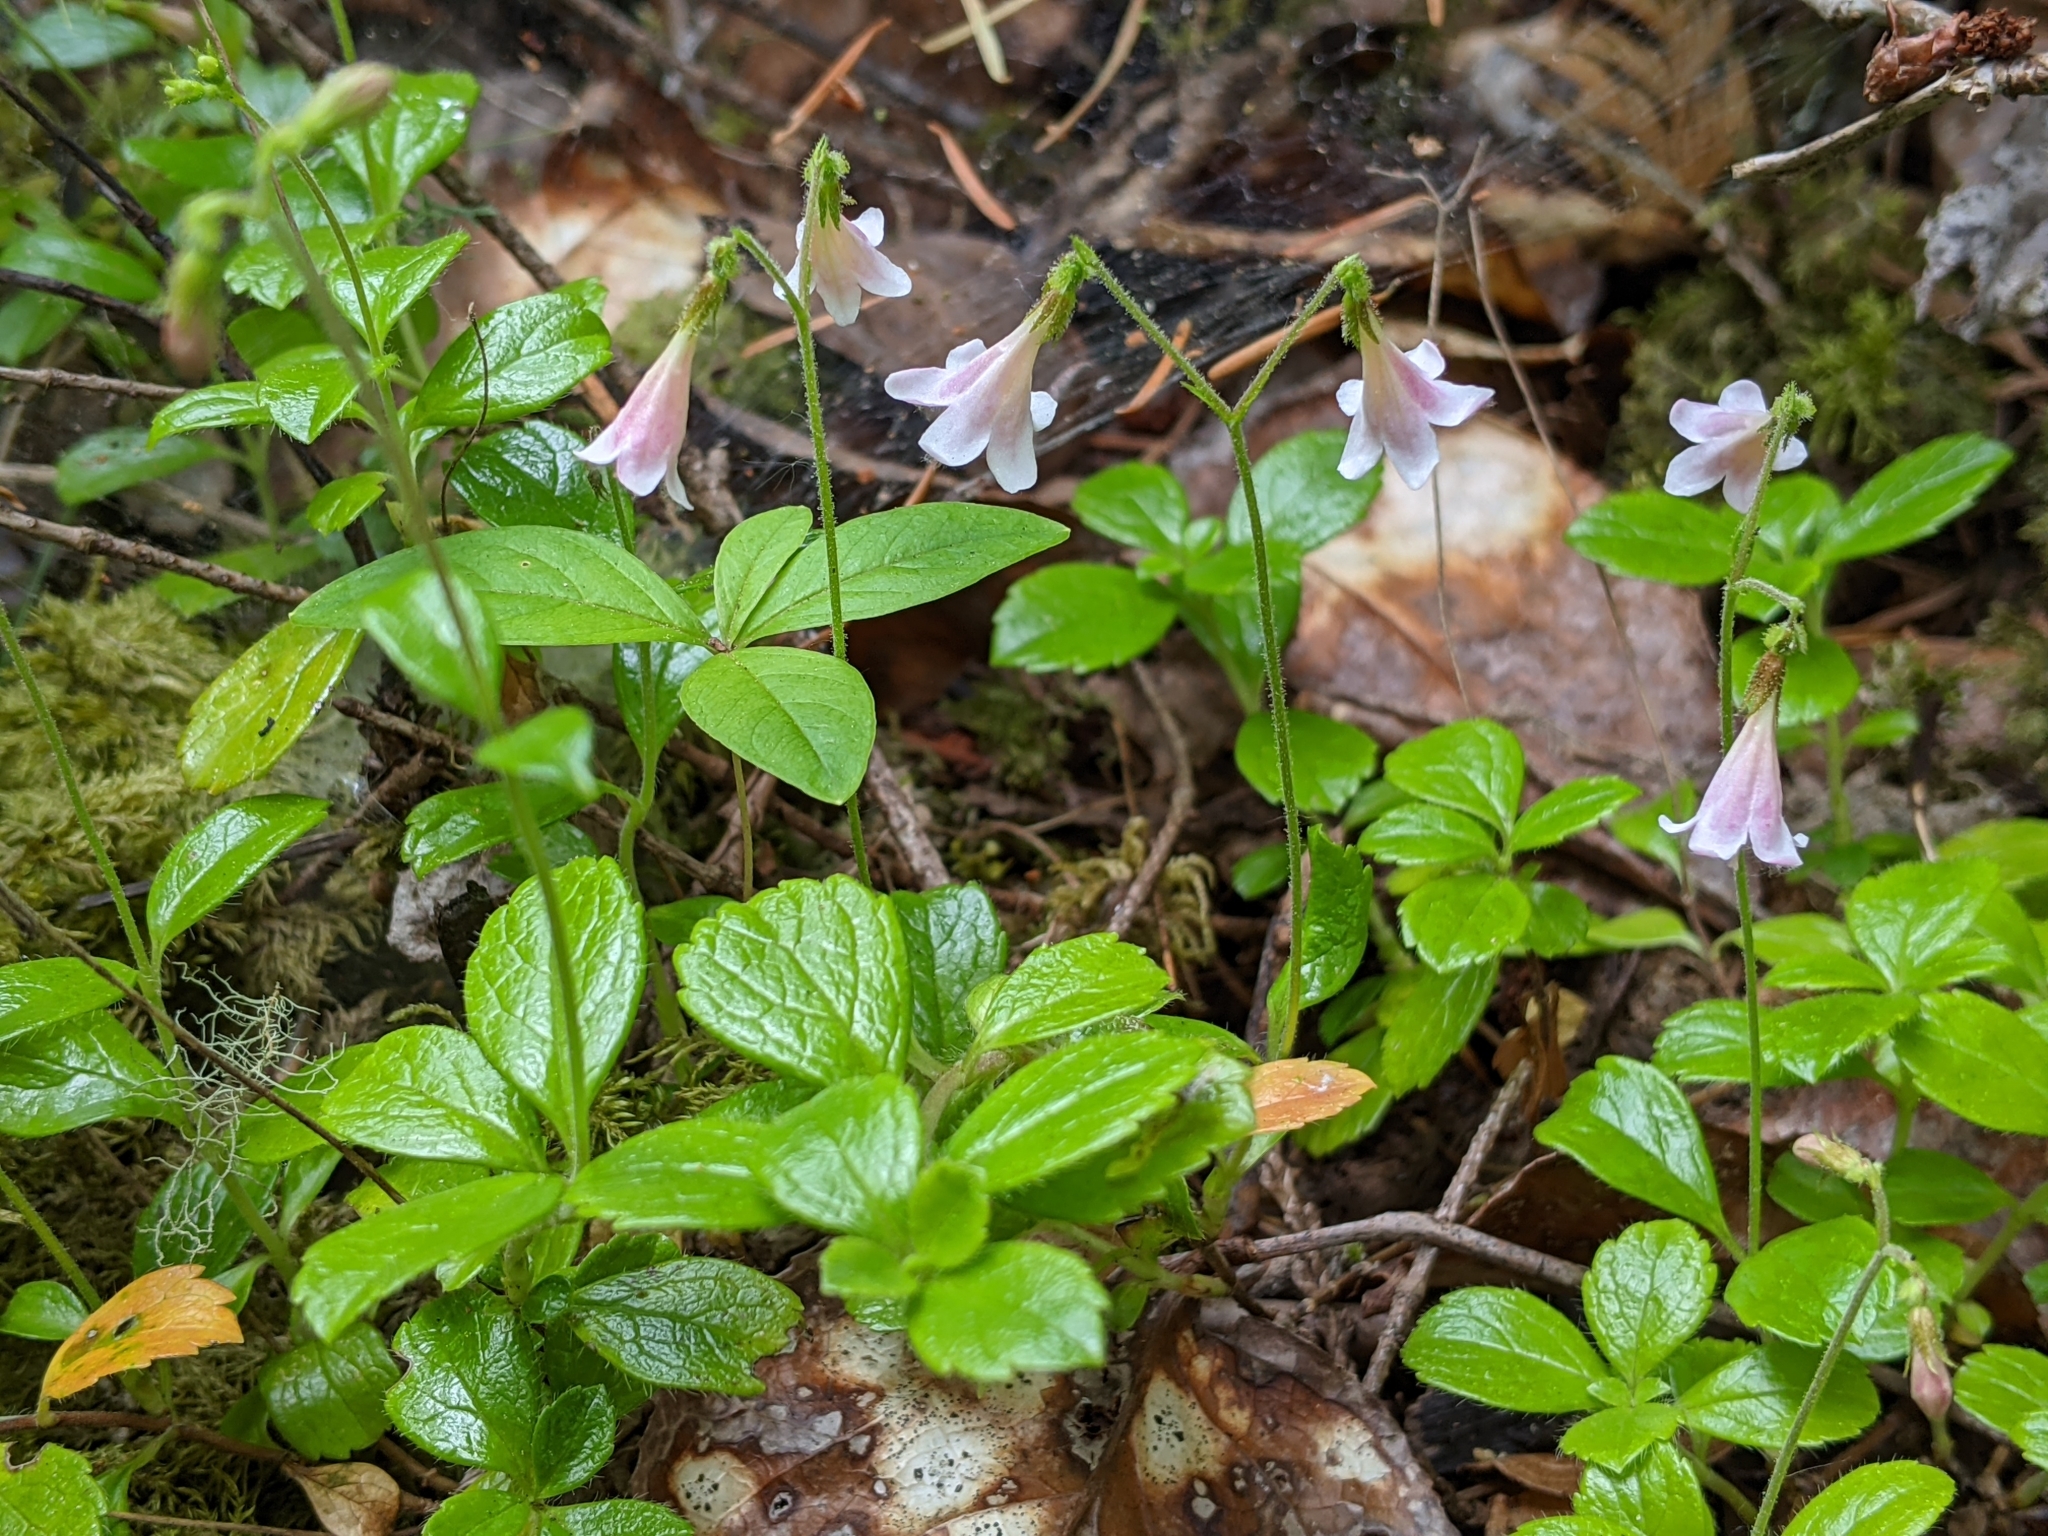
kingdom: Plantae
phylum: Tracheophyta
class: Magnoliopsida
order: Dipsacales
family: Caprifoliaceae
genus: Linnaea
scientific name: Linnaea borealis
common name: Twinflower
